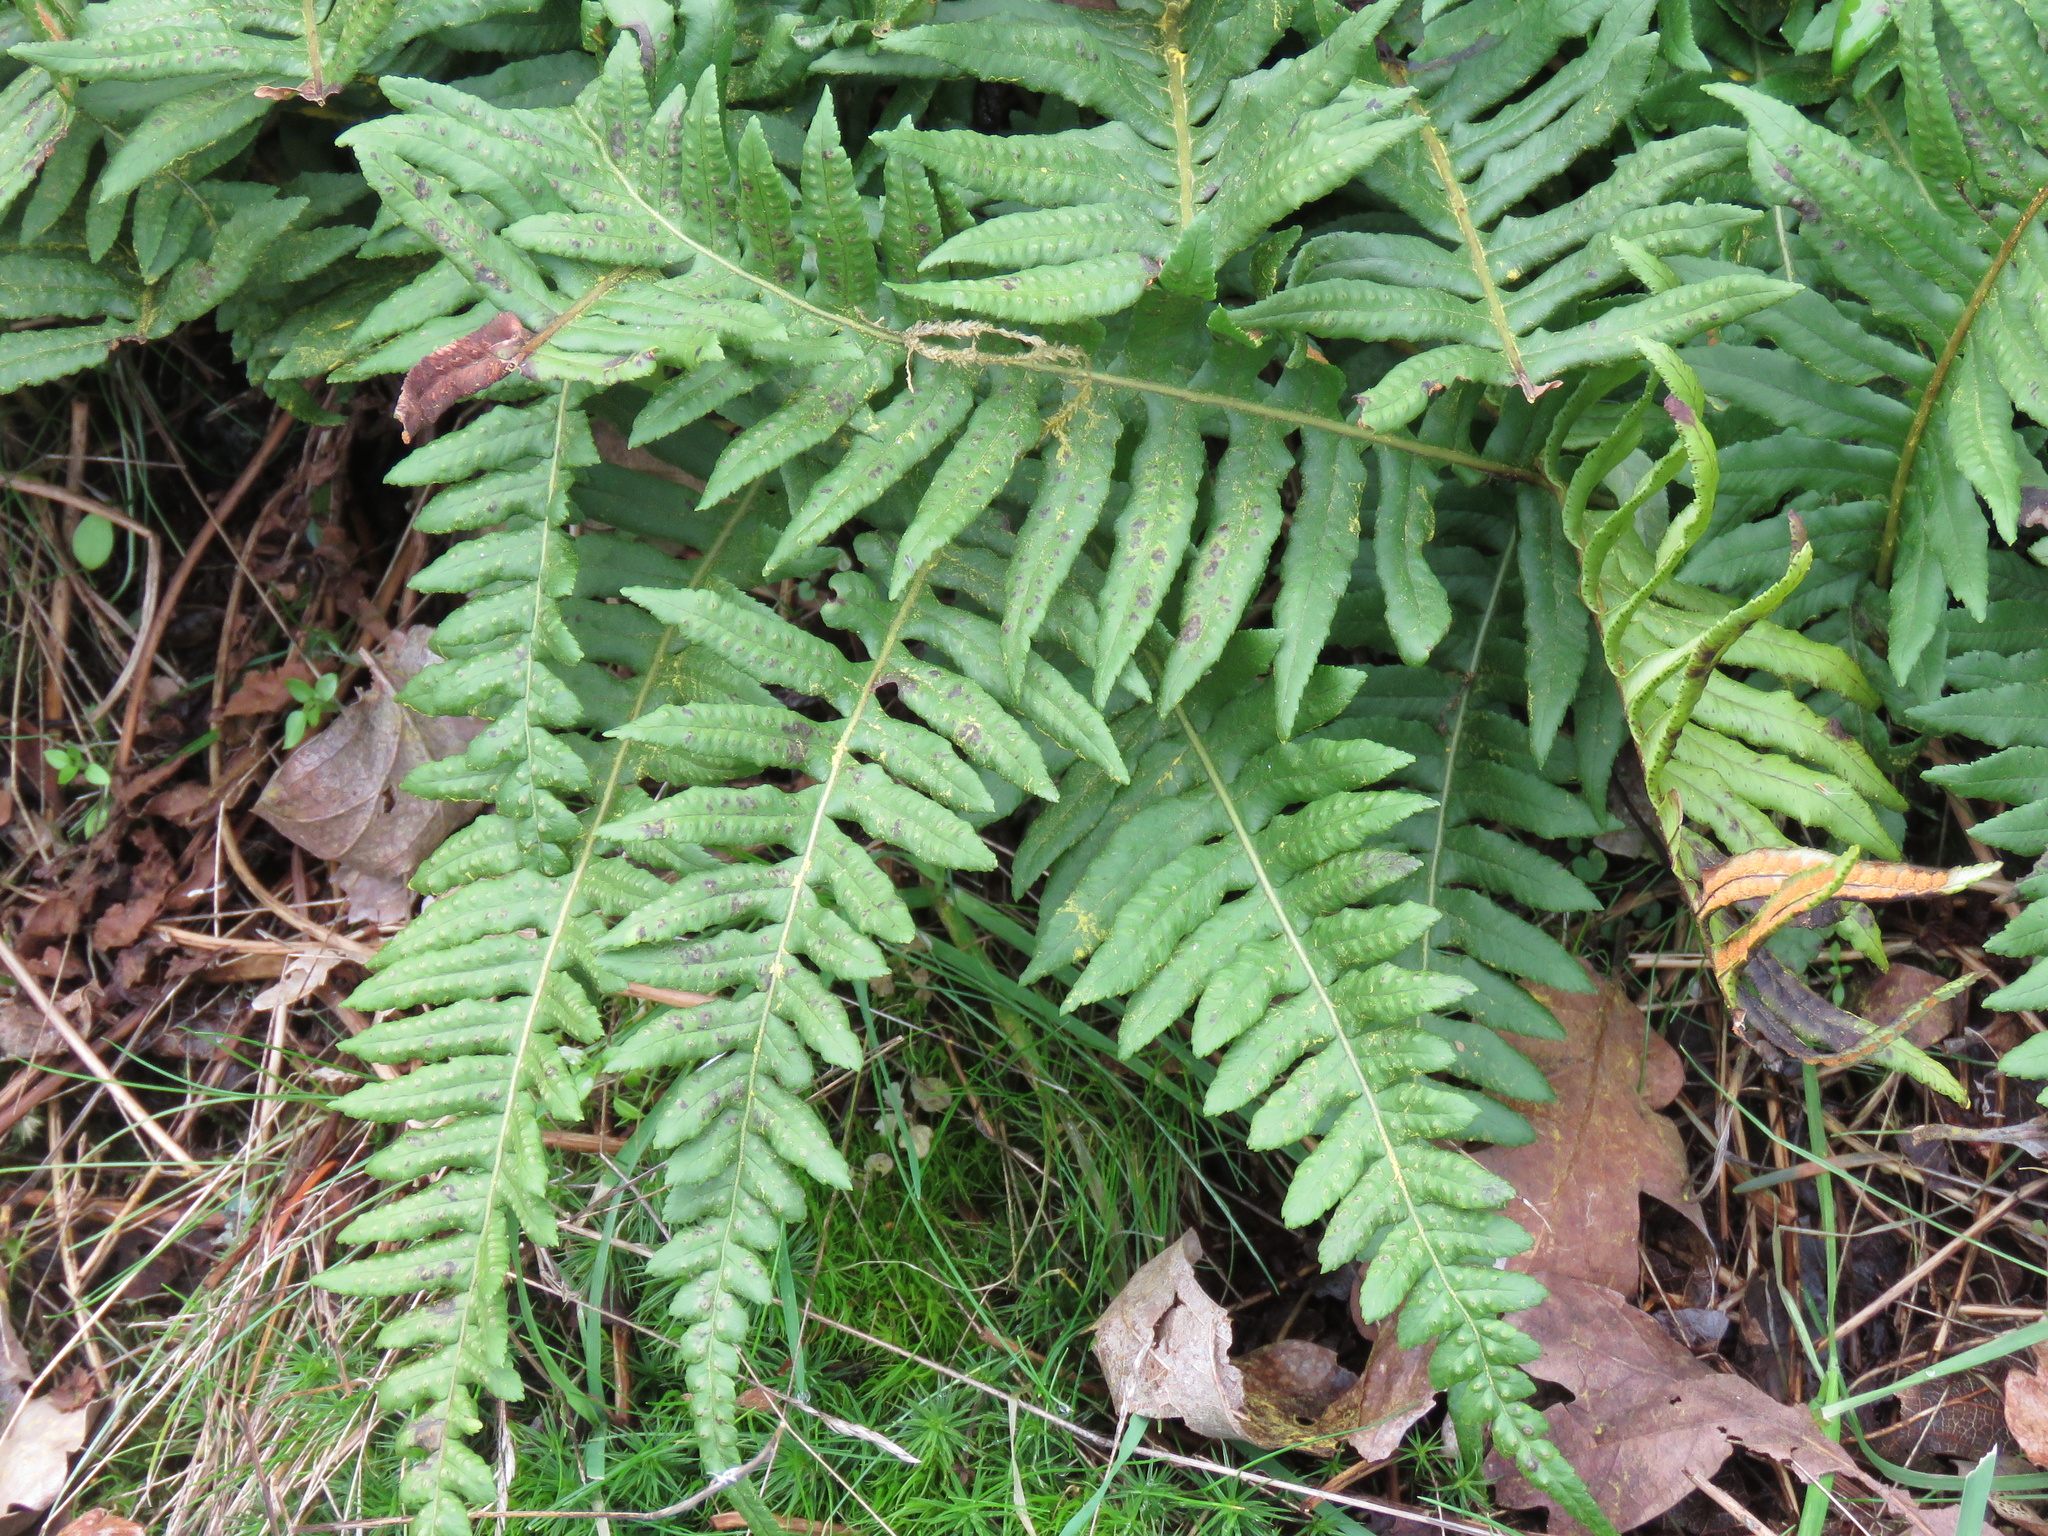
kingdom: Plantae
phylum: Tracheophyta
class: Polypodiopsida
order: Polypodiales
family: Polypodiaceae
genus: Polypodium
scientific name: Polypodium glycyrrhiza
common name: Licorice fern
